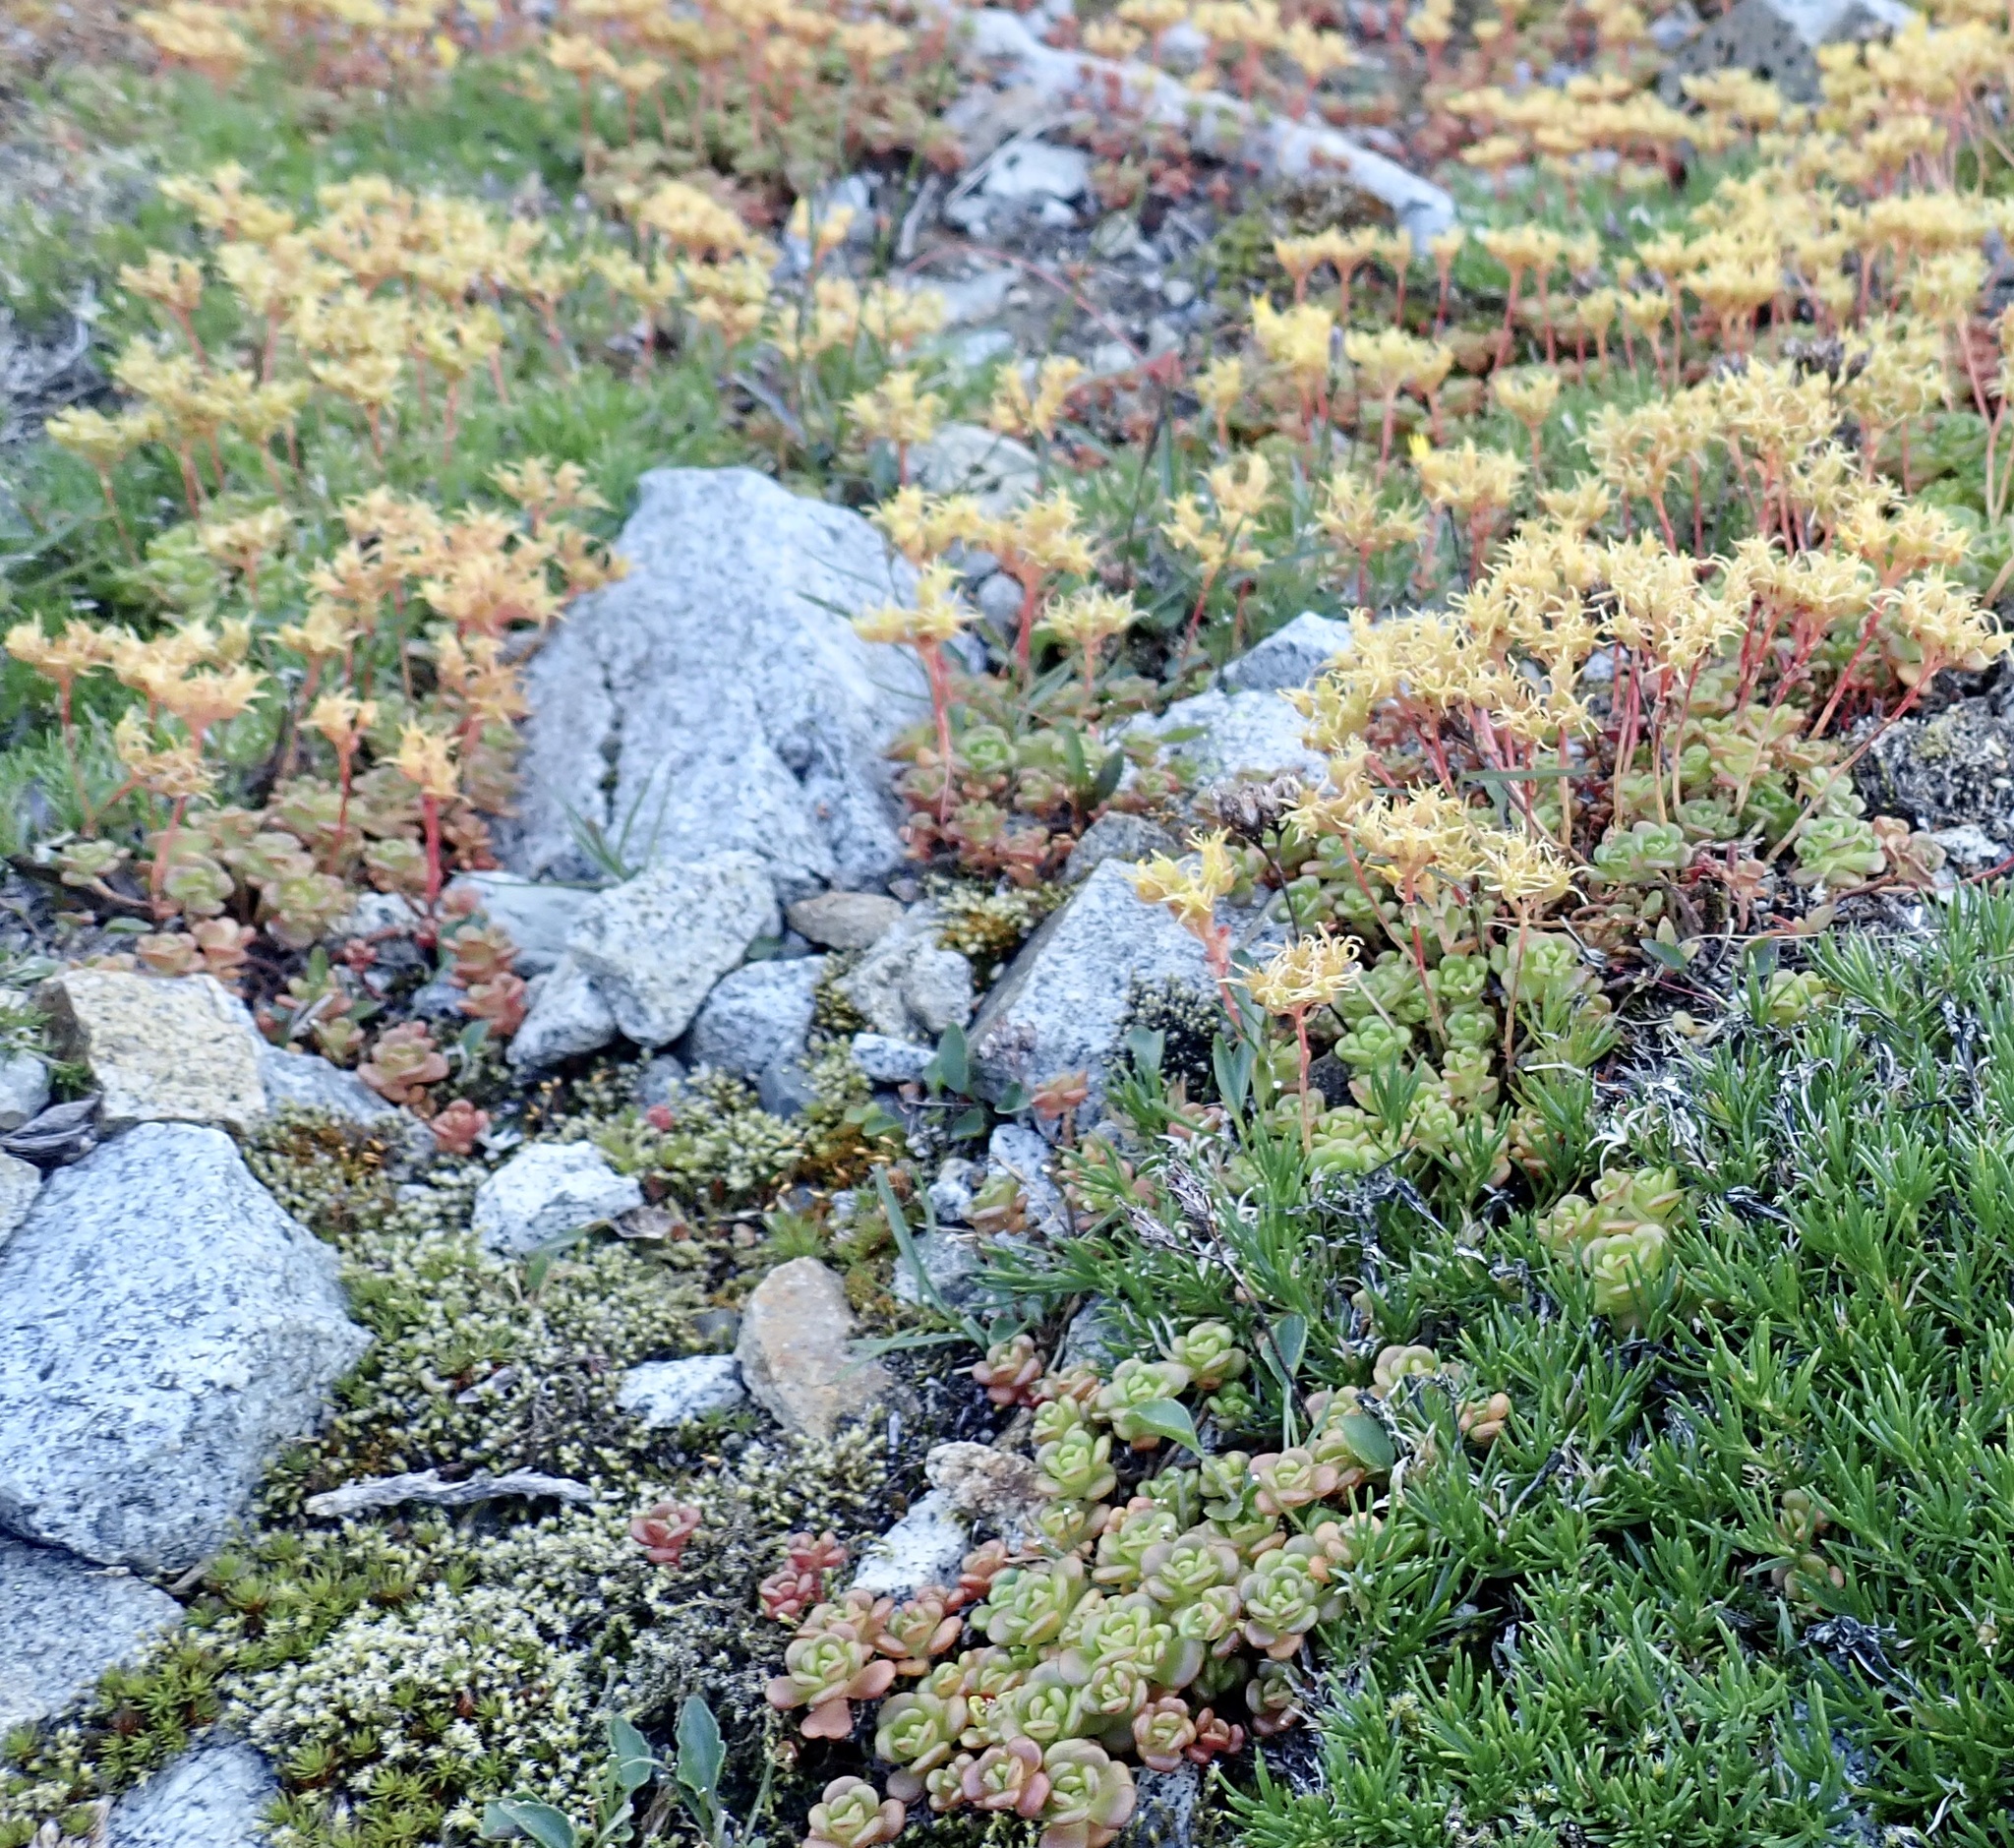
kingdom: Plantae
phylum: Tracheophyta
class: Magnoliopsida
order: Saxifragales
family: Crassulaceae
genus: Sedum
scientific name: Sedum oreganum
